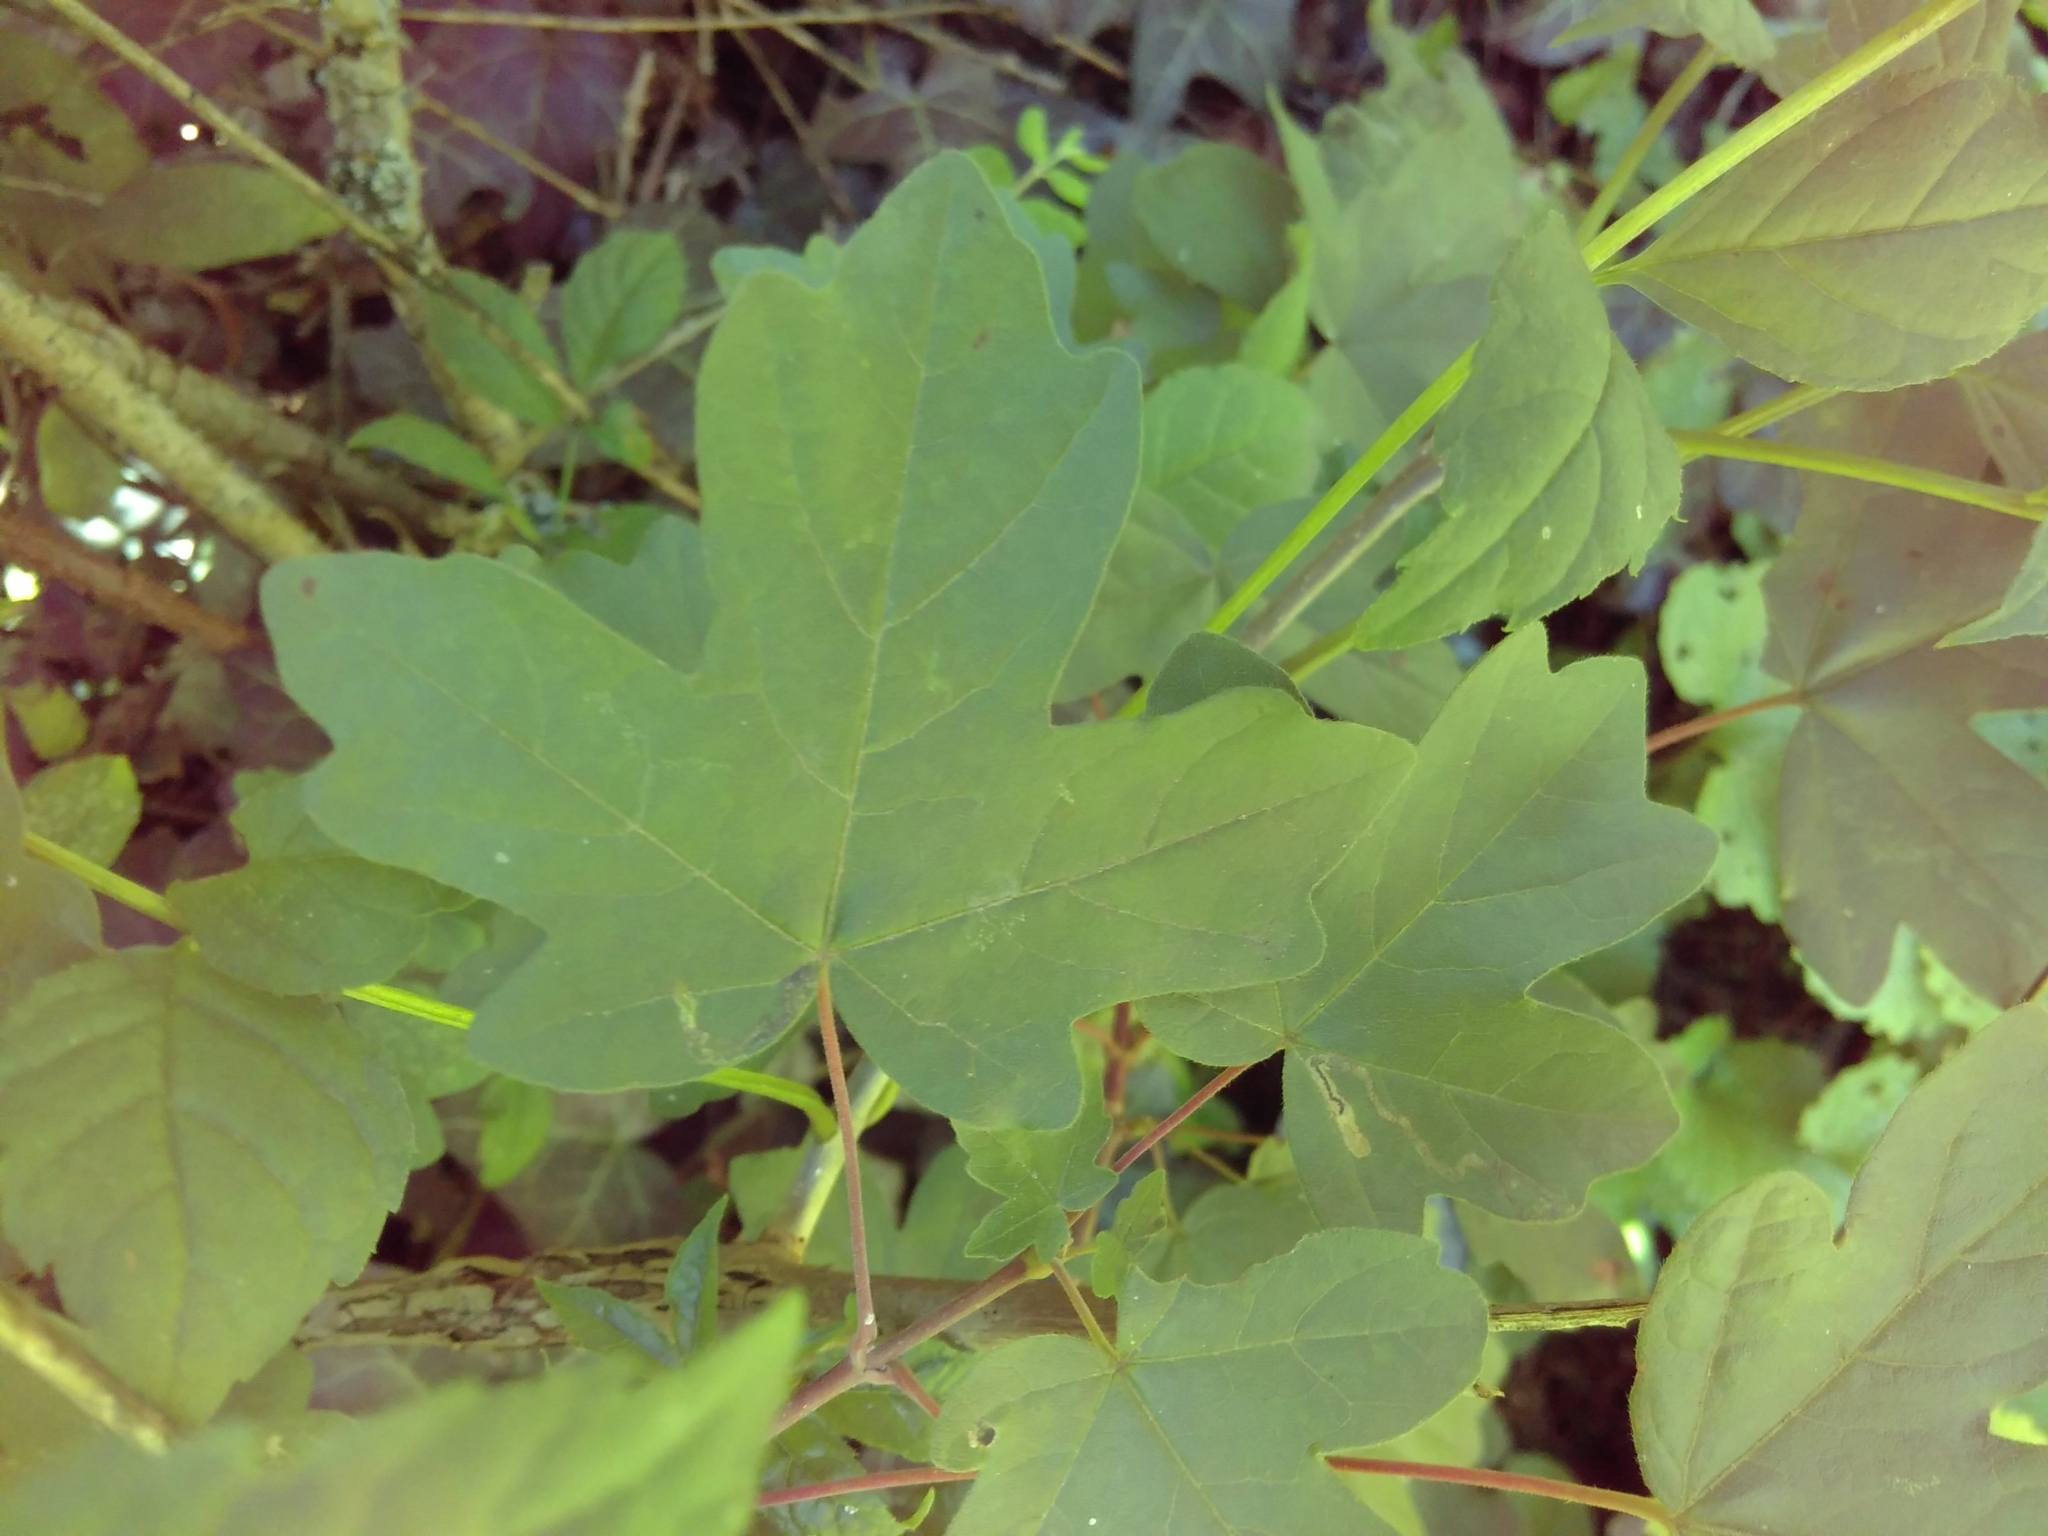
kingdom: Plantae
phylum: Tracheophyta
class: Magnoliopsida
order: Sapindales
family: Sapindaceae
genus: Acer
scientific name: Acer campestre
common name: Field maple
